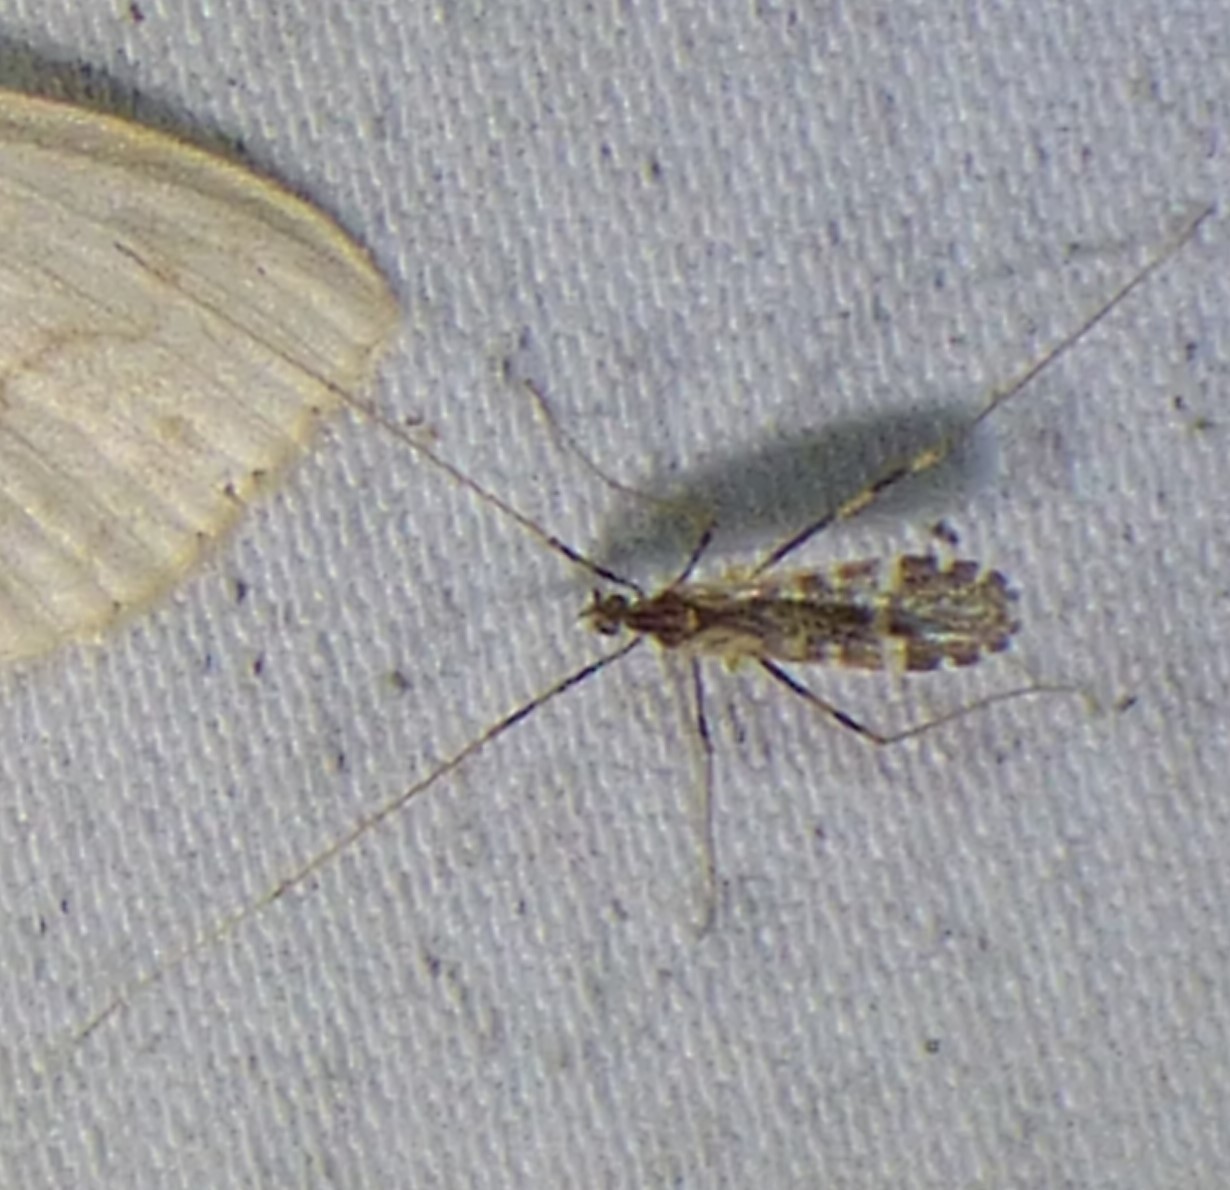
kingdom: Animalia
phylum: Arthropoda
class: Insecta
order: Diptera
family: Limoniidae
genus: Erioptera
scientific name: Erioptera caliptera
